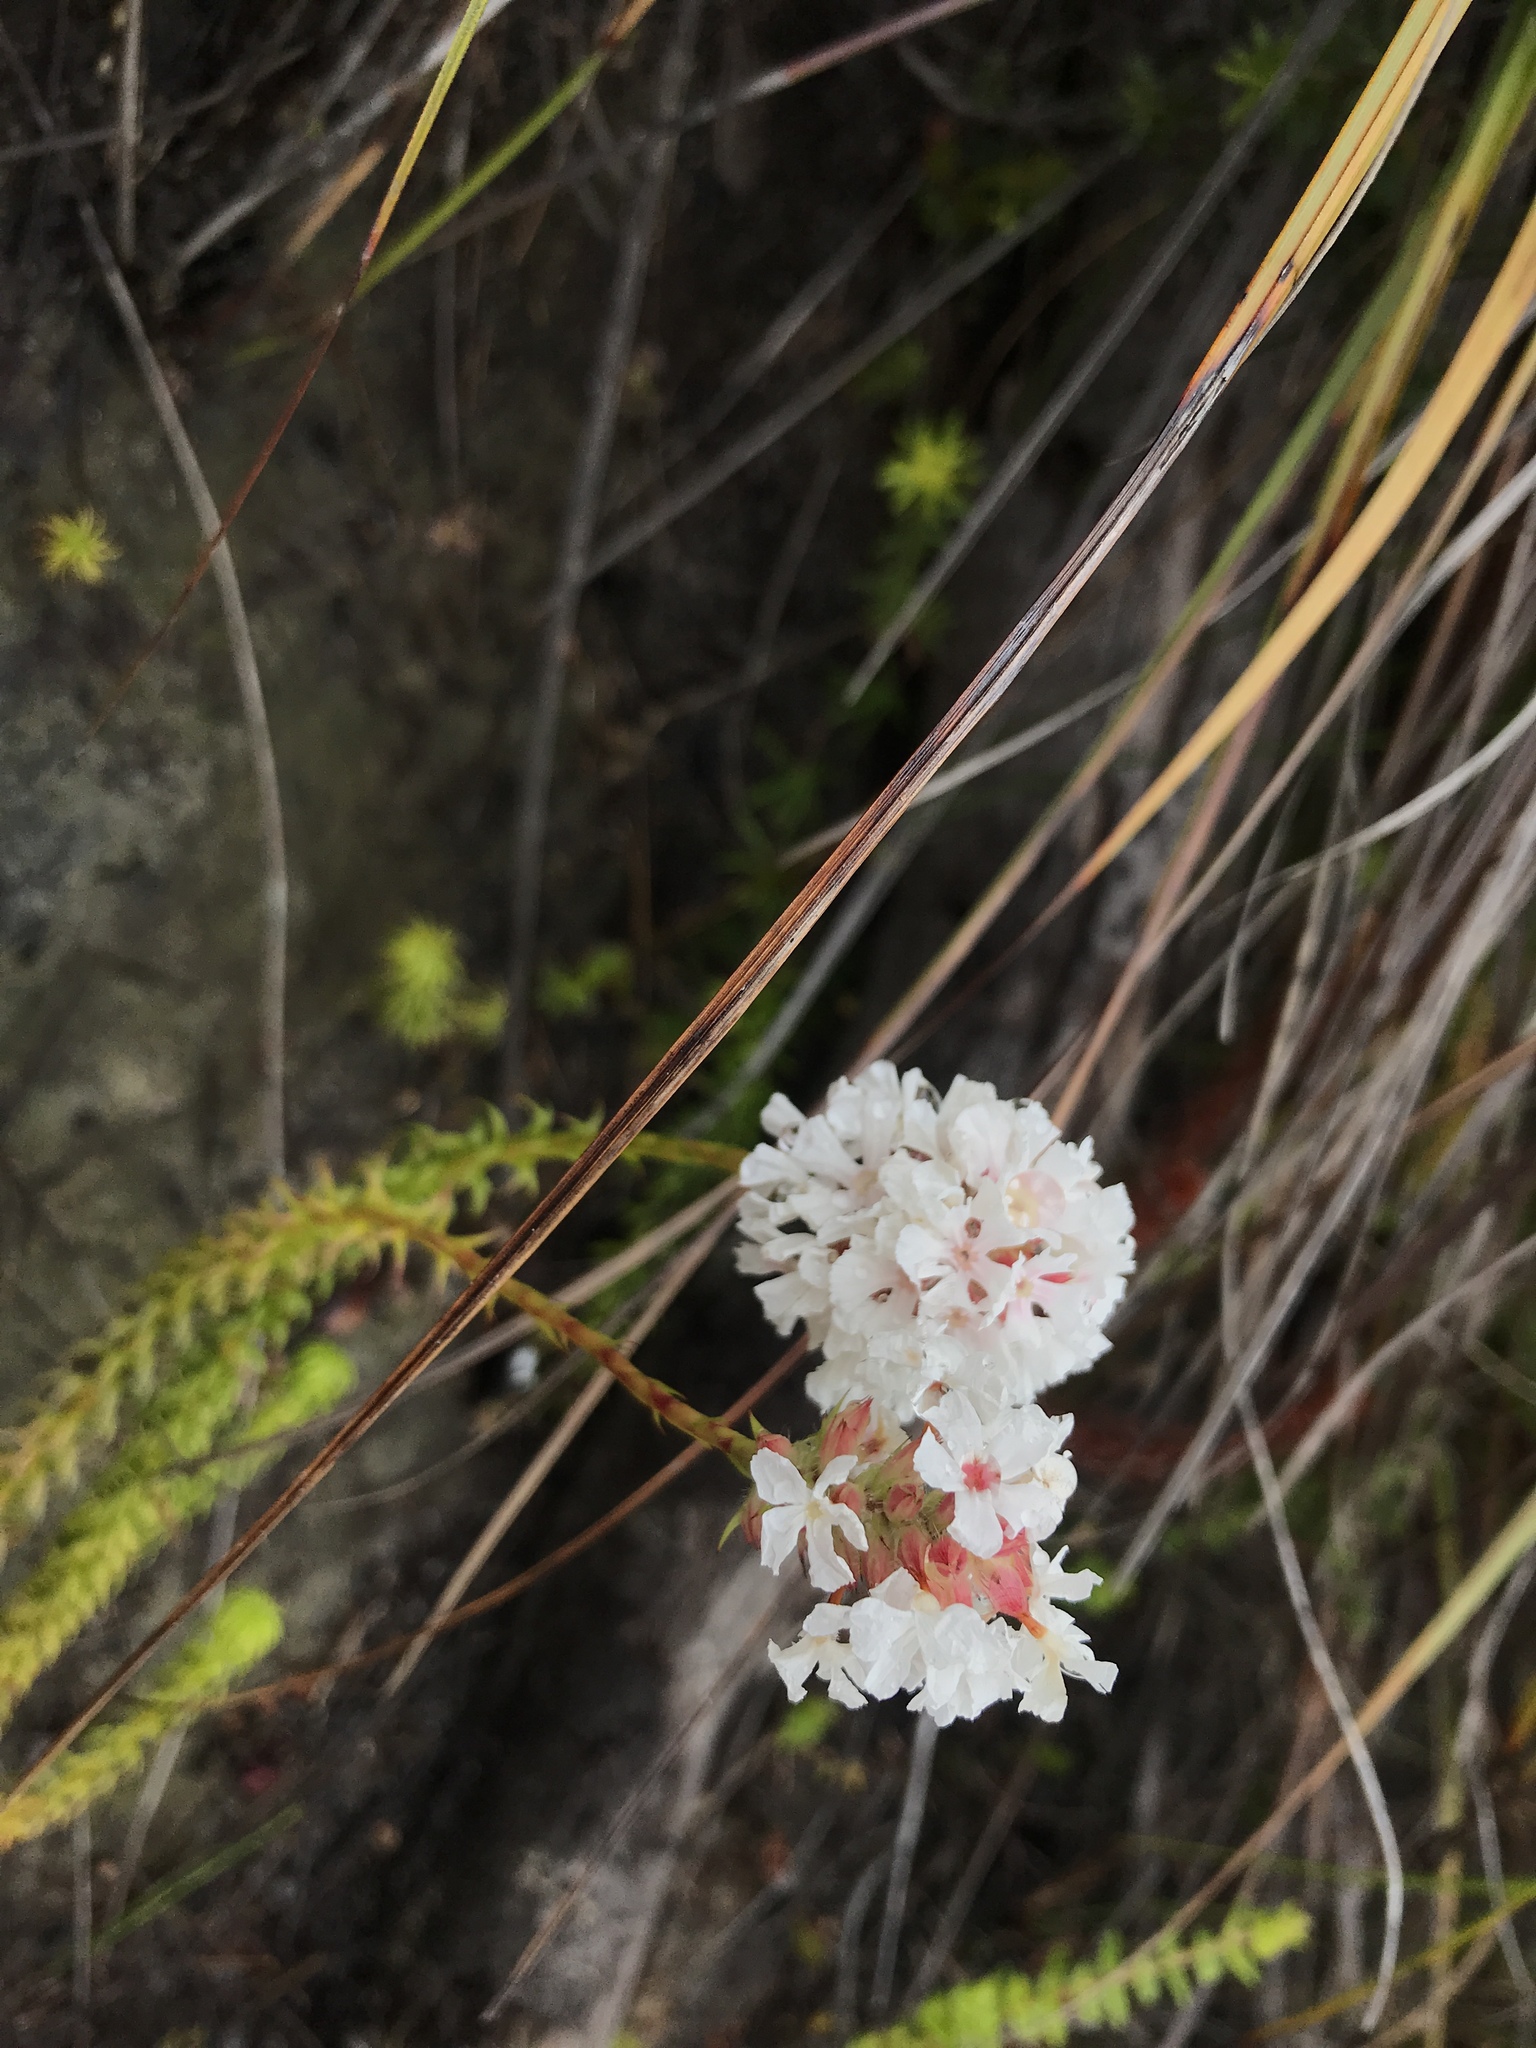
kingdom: Plantae
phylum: Tracheophyta
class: Magnoliopsida
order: Ericales
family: Ericaceae
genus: Sphenotoma
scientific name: Sphenotoma gracilis
